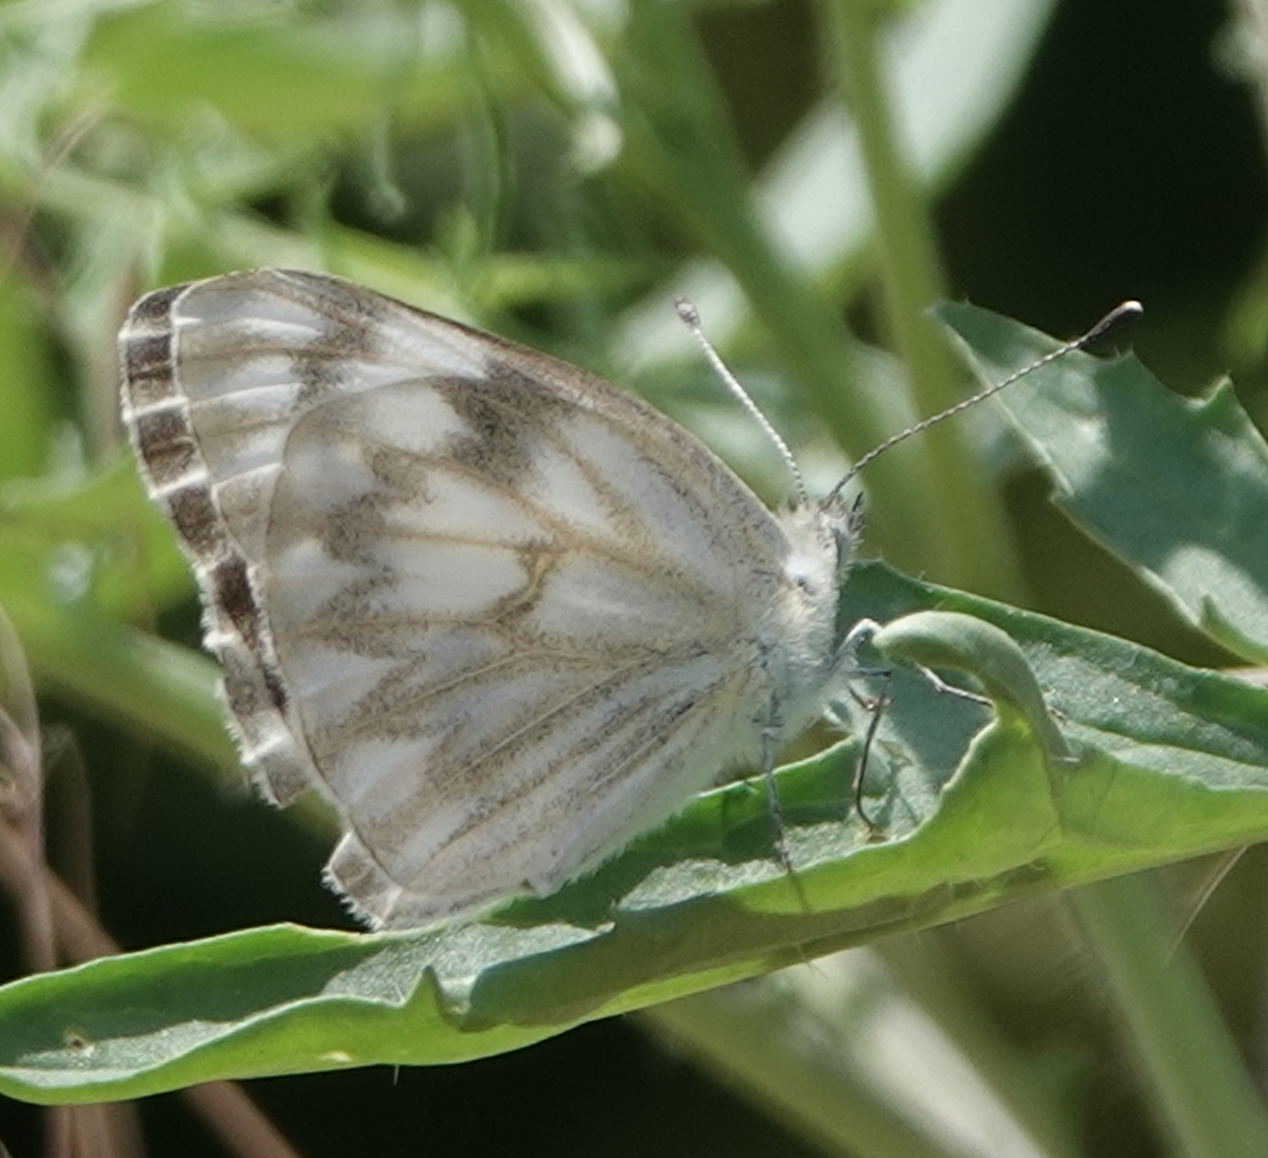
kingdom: Animalia
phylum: Arthropoda
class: Insecta
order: Lepidoptera
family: Pieridae
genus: Pontia
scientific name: Pontia protodice
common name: Checkered white
